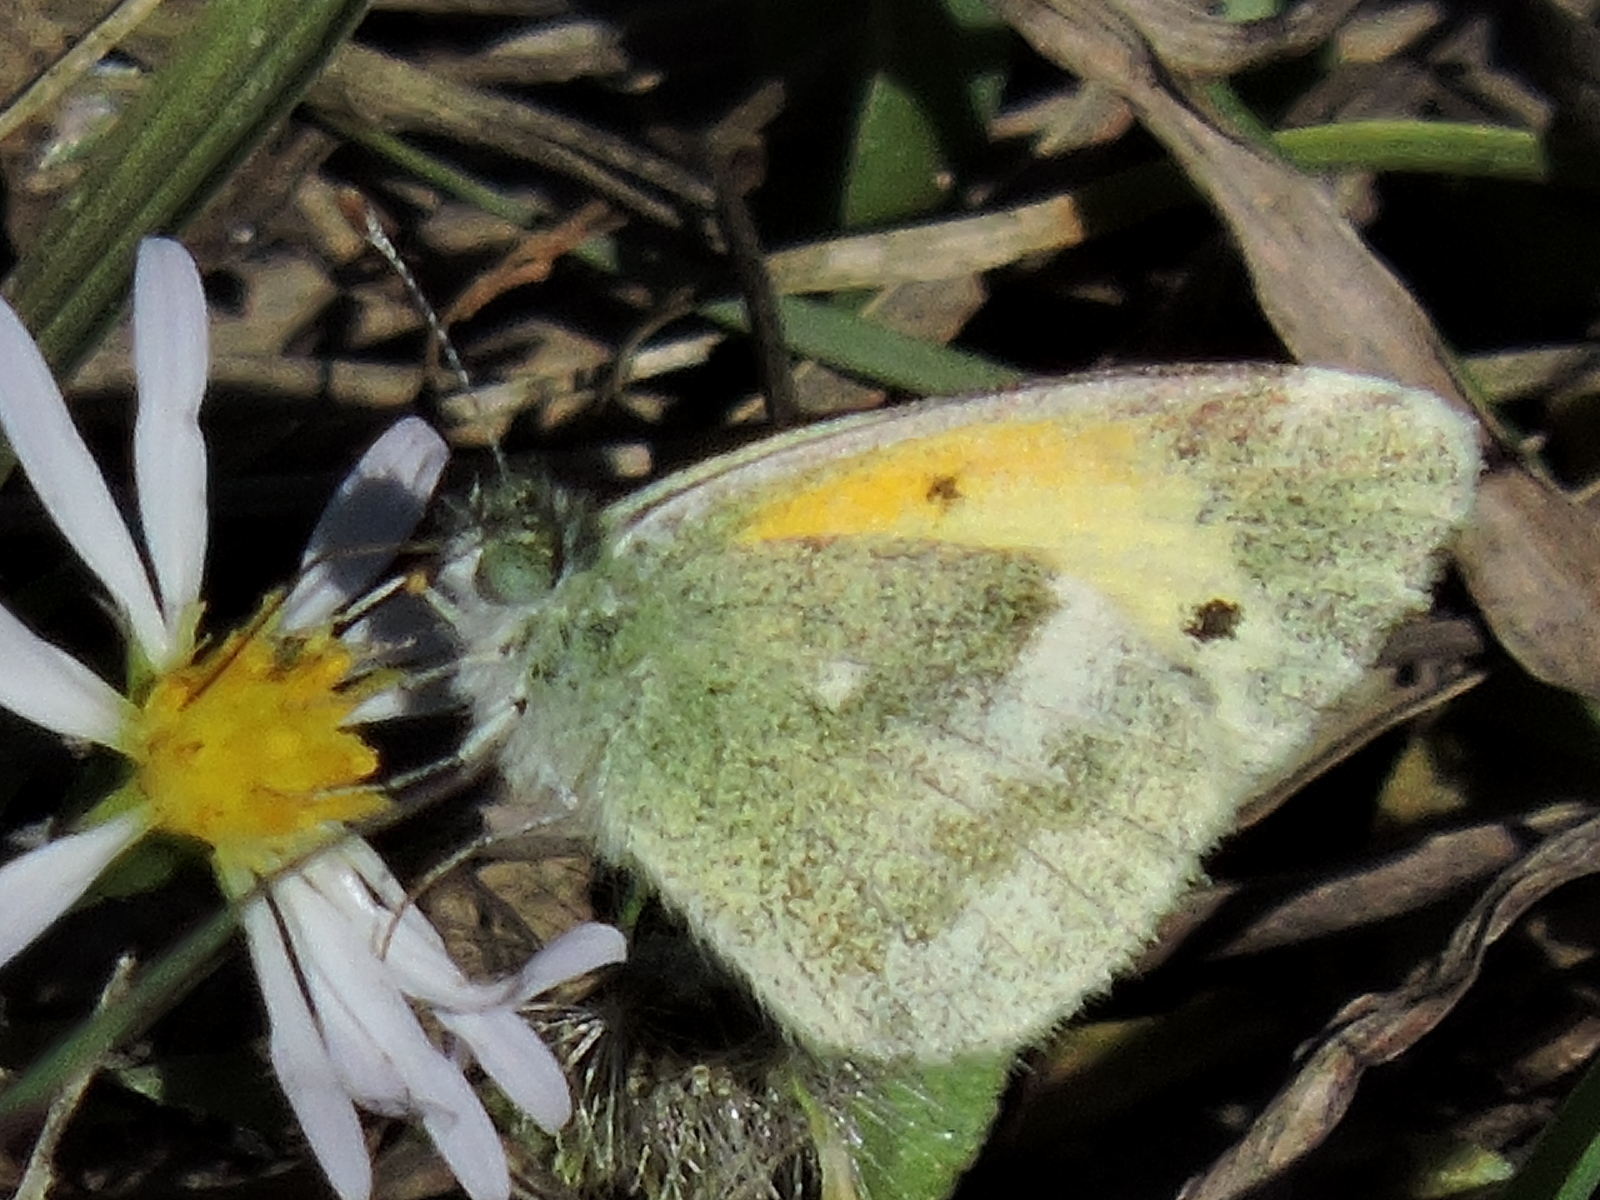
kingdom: Animalia
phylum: Arthropoda
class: Insecta
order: Lepidoptera
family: Pieridae
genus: Nathalis
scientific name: Nathalis iole
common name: Dainty sulphur
